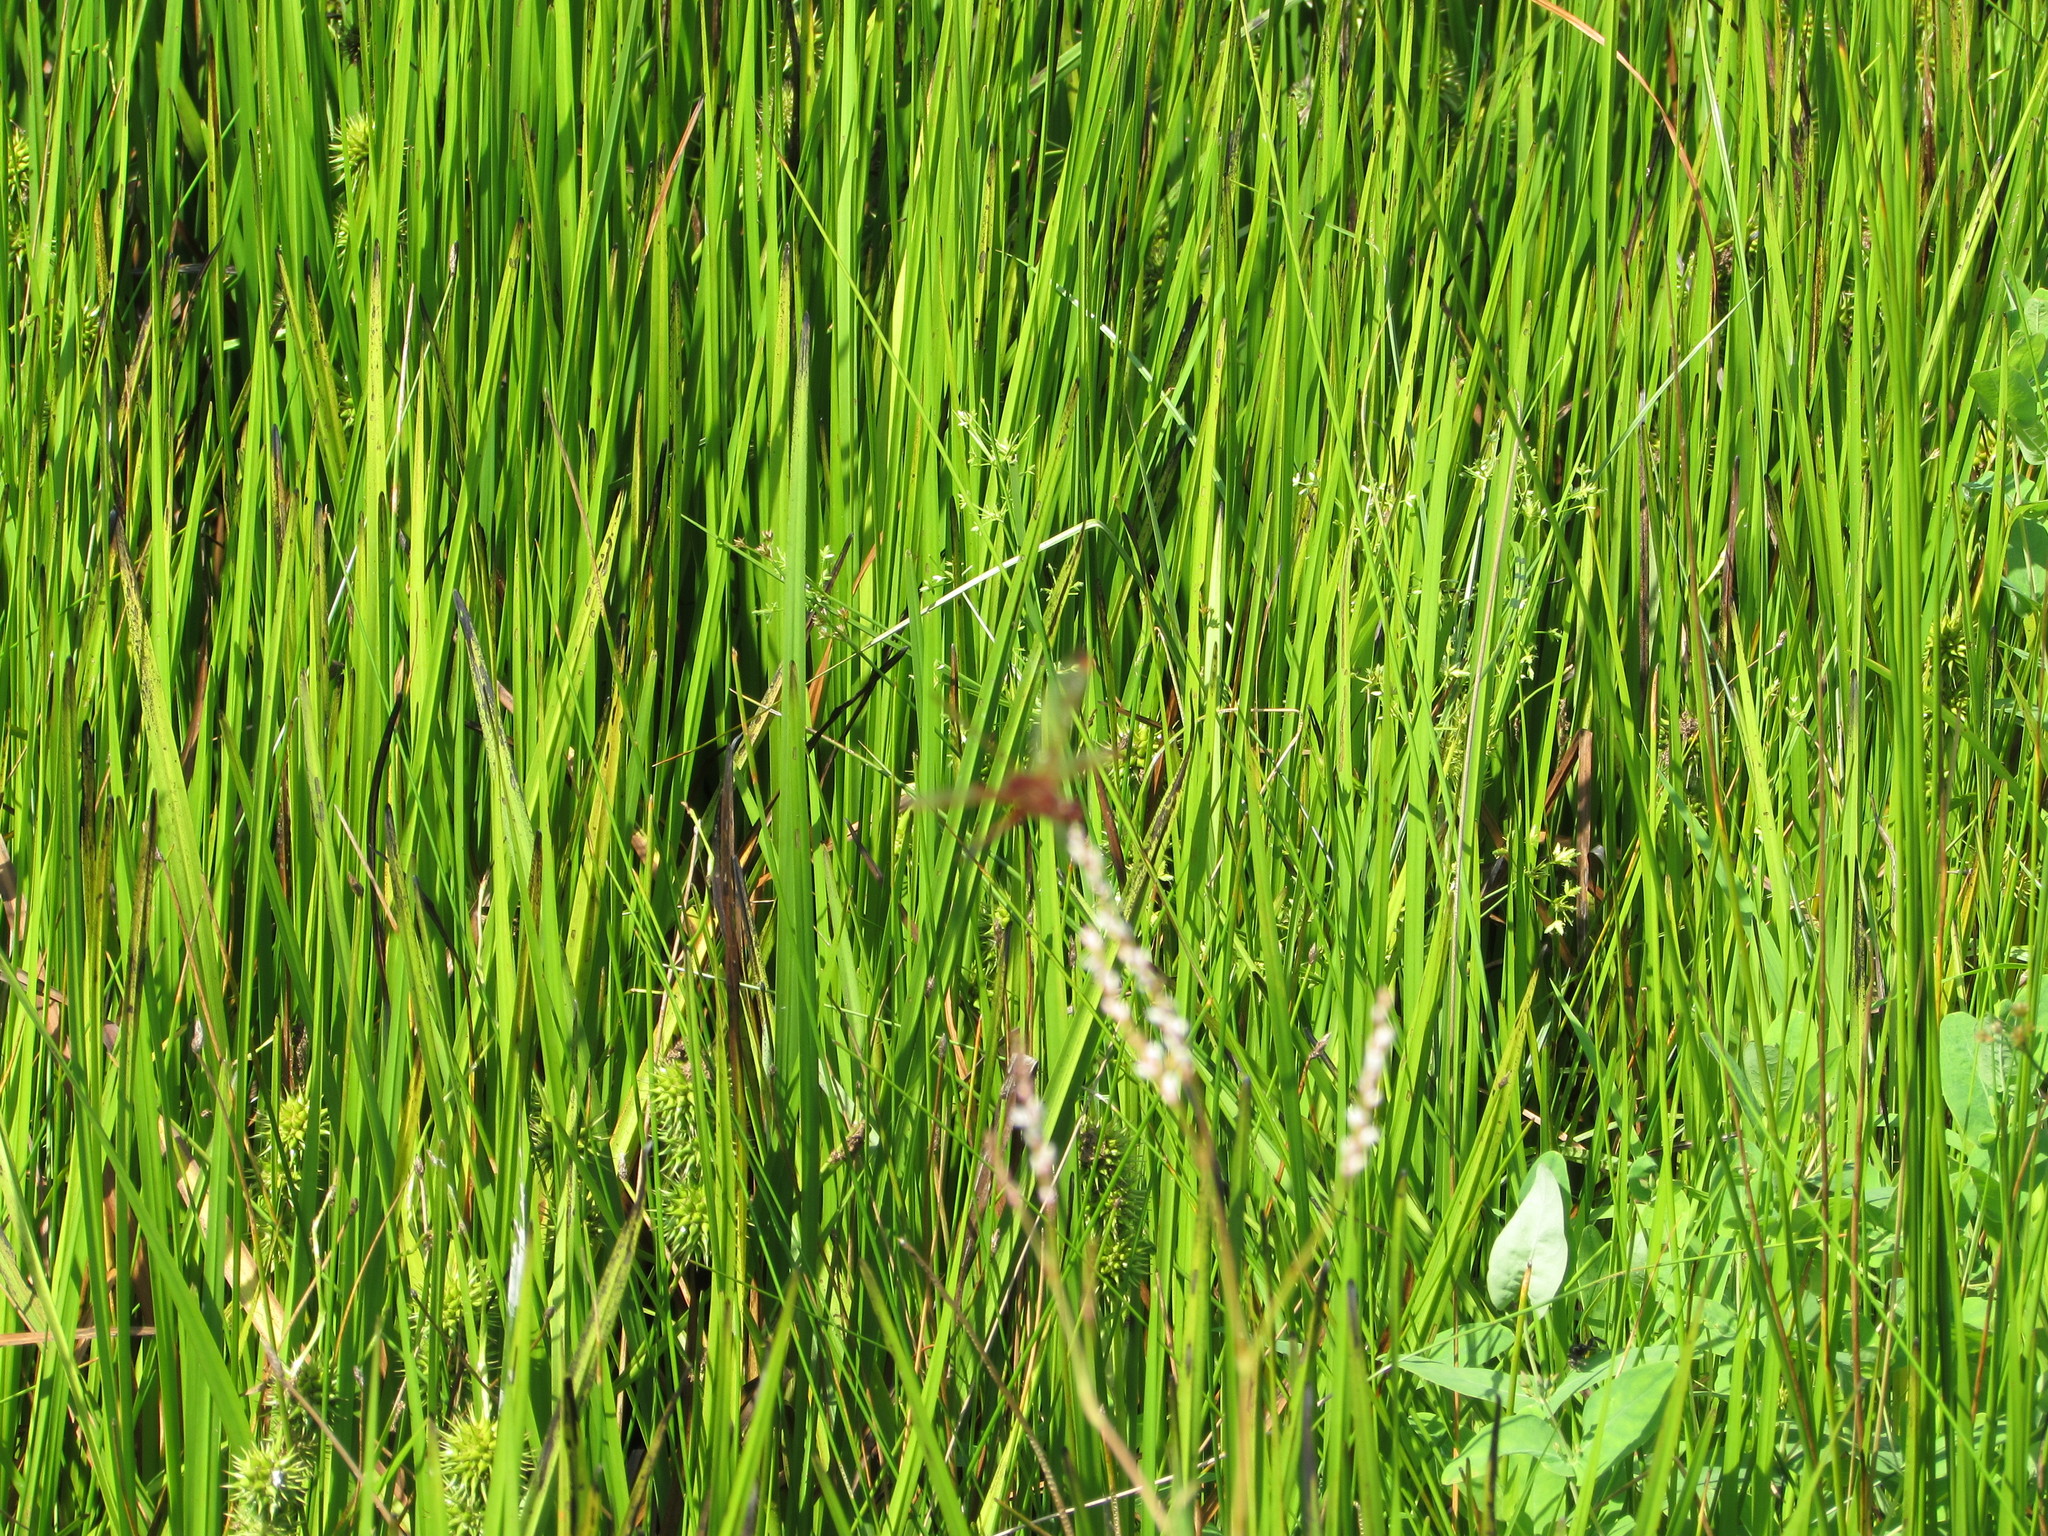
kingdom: Animalia
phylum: Arthropoda
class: Insecta
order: Odonata
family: Libellulidae
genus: Celithemis
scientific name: Celithemis elisa
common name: Calico pennant
